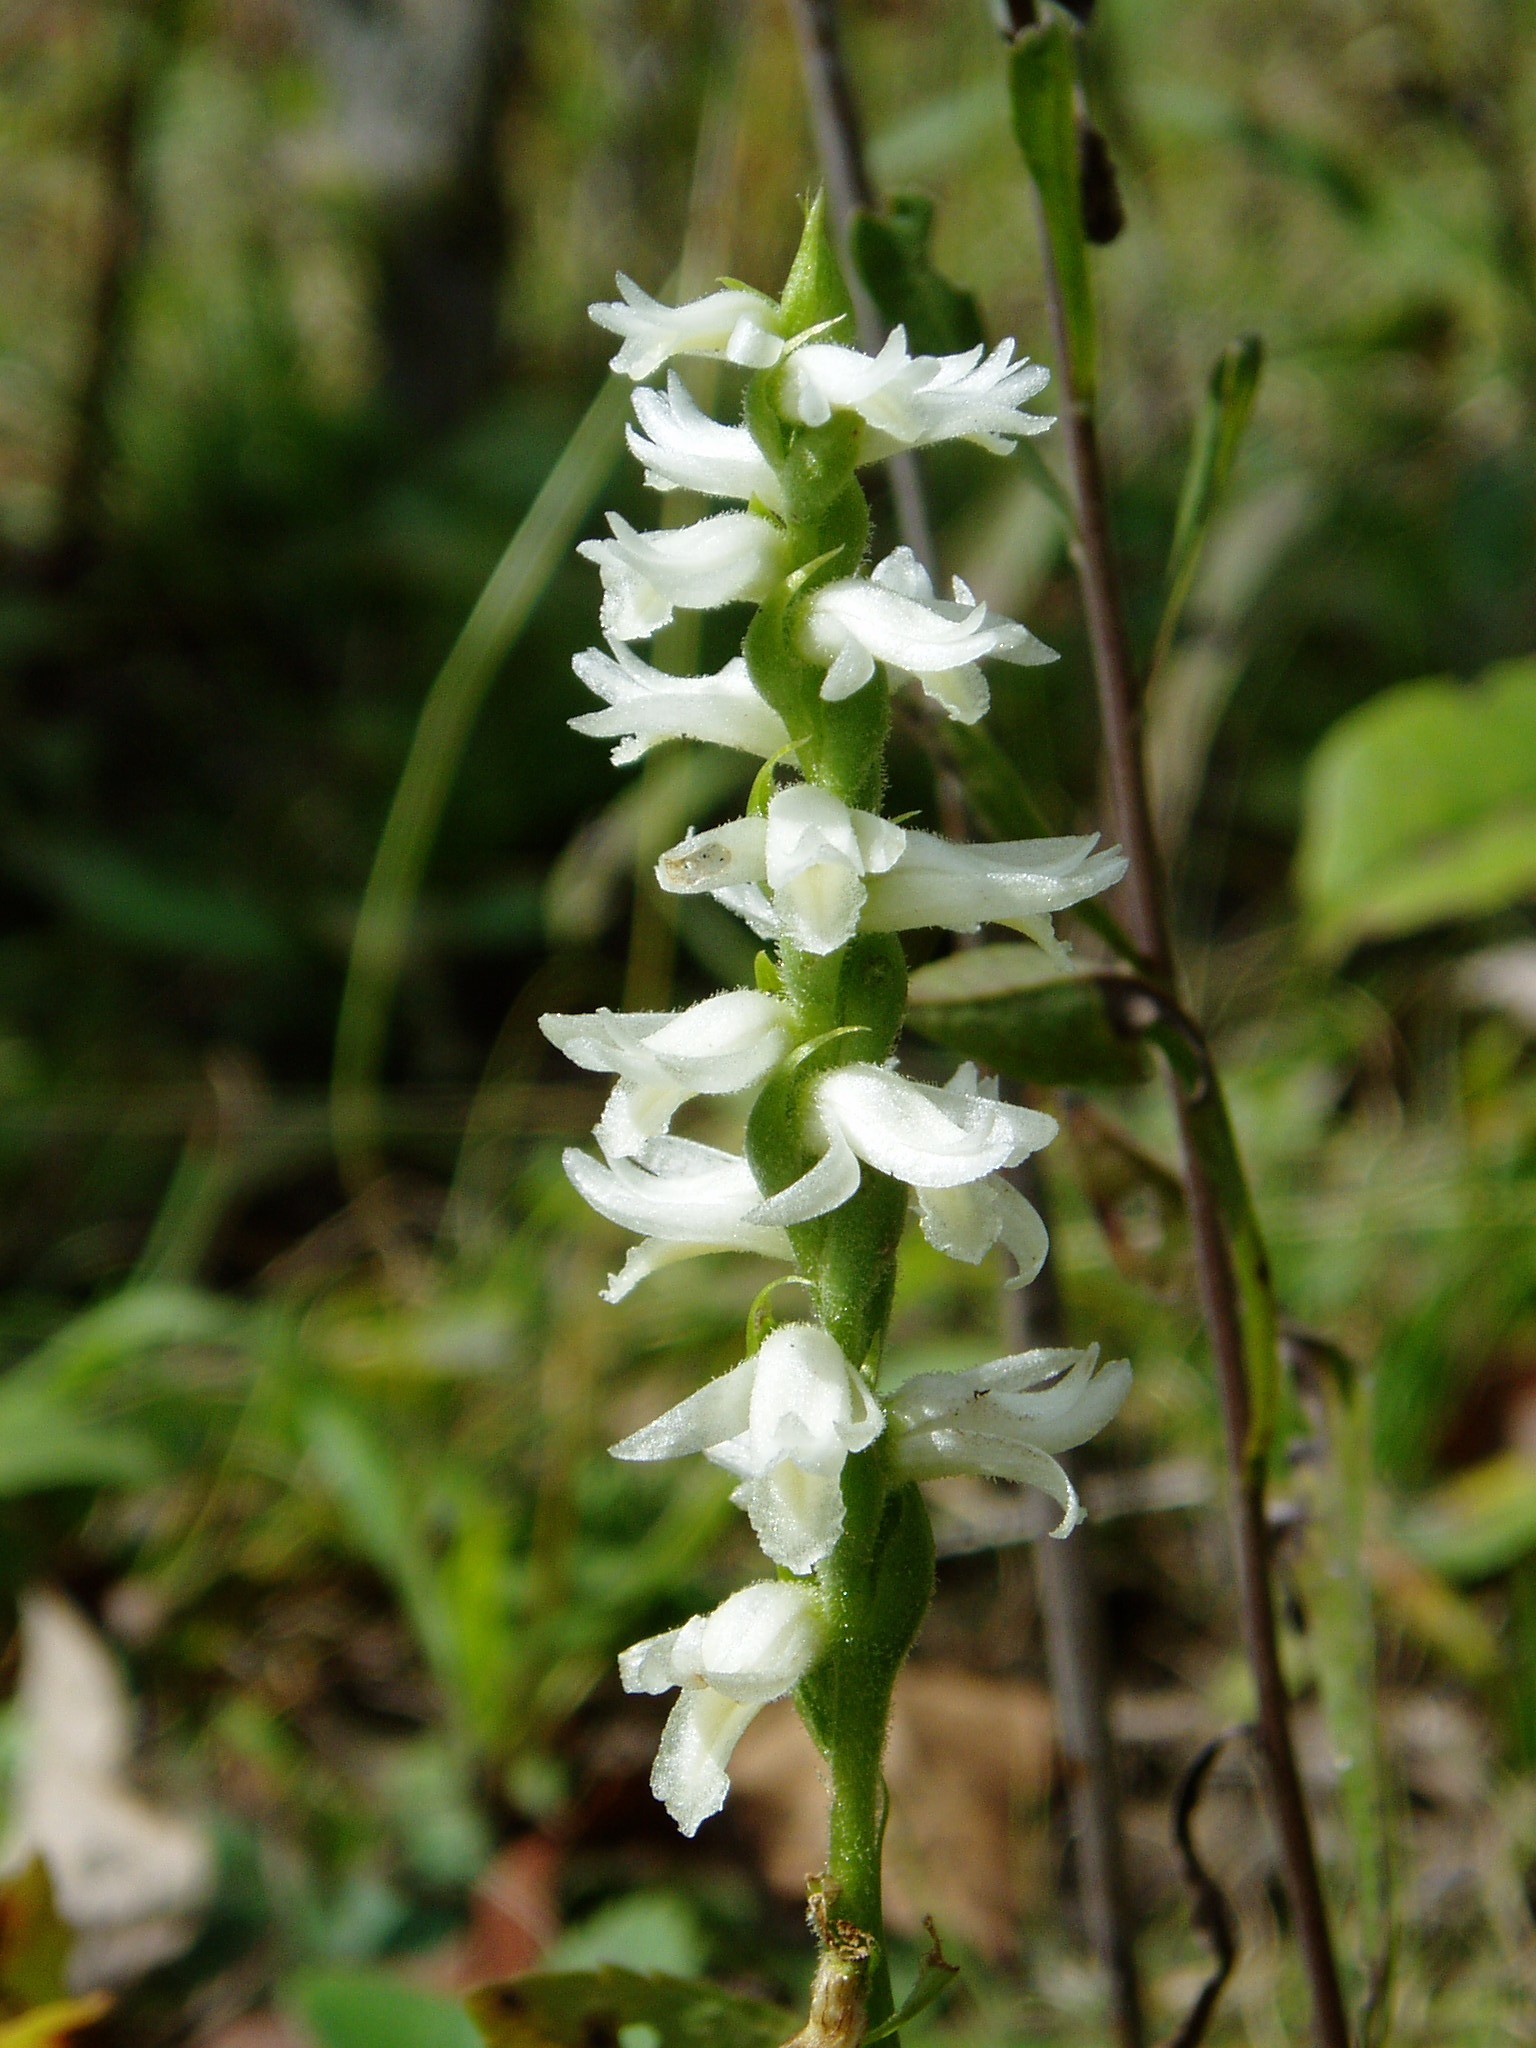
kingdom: Plantae
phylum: Tracheophyta
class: Liliopsida
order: Asparagales
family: Orchidaceae
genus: Spiranthes
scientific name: Spiranthes magnicamporum
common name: Great plains ladies'-tresses
